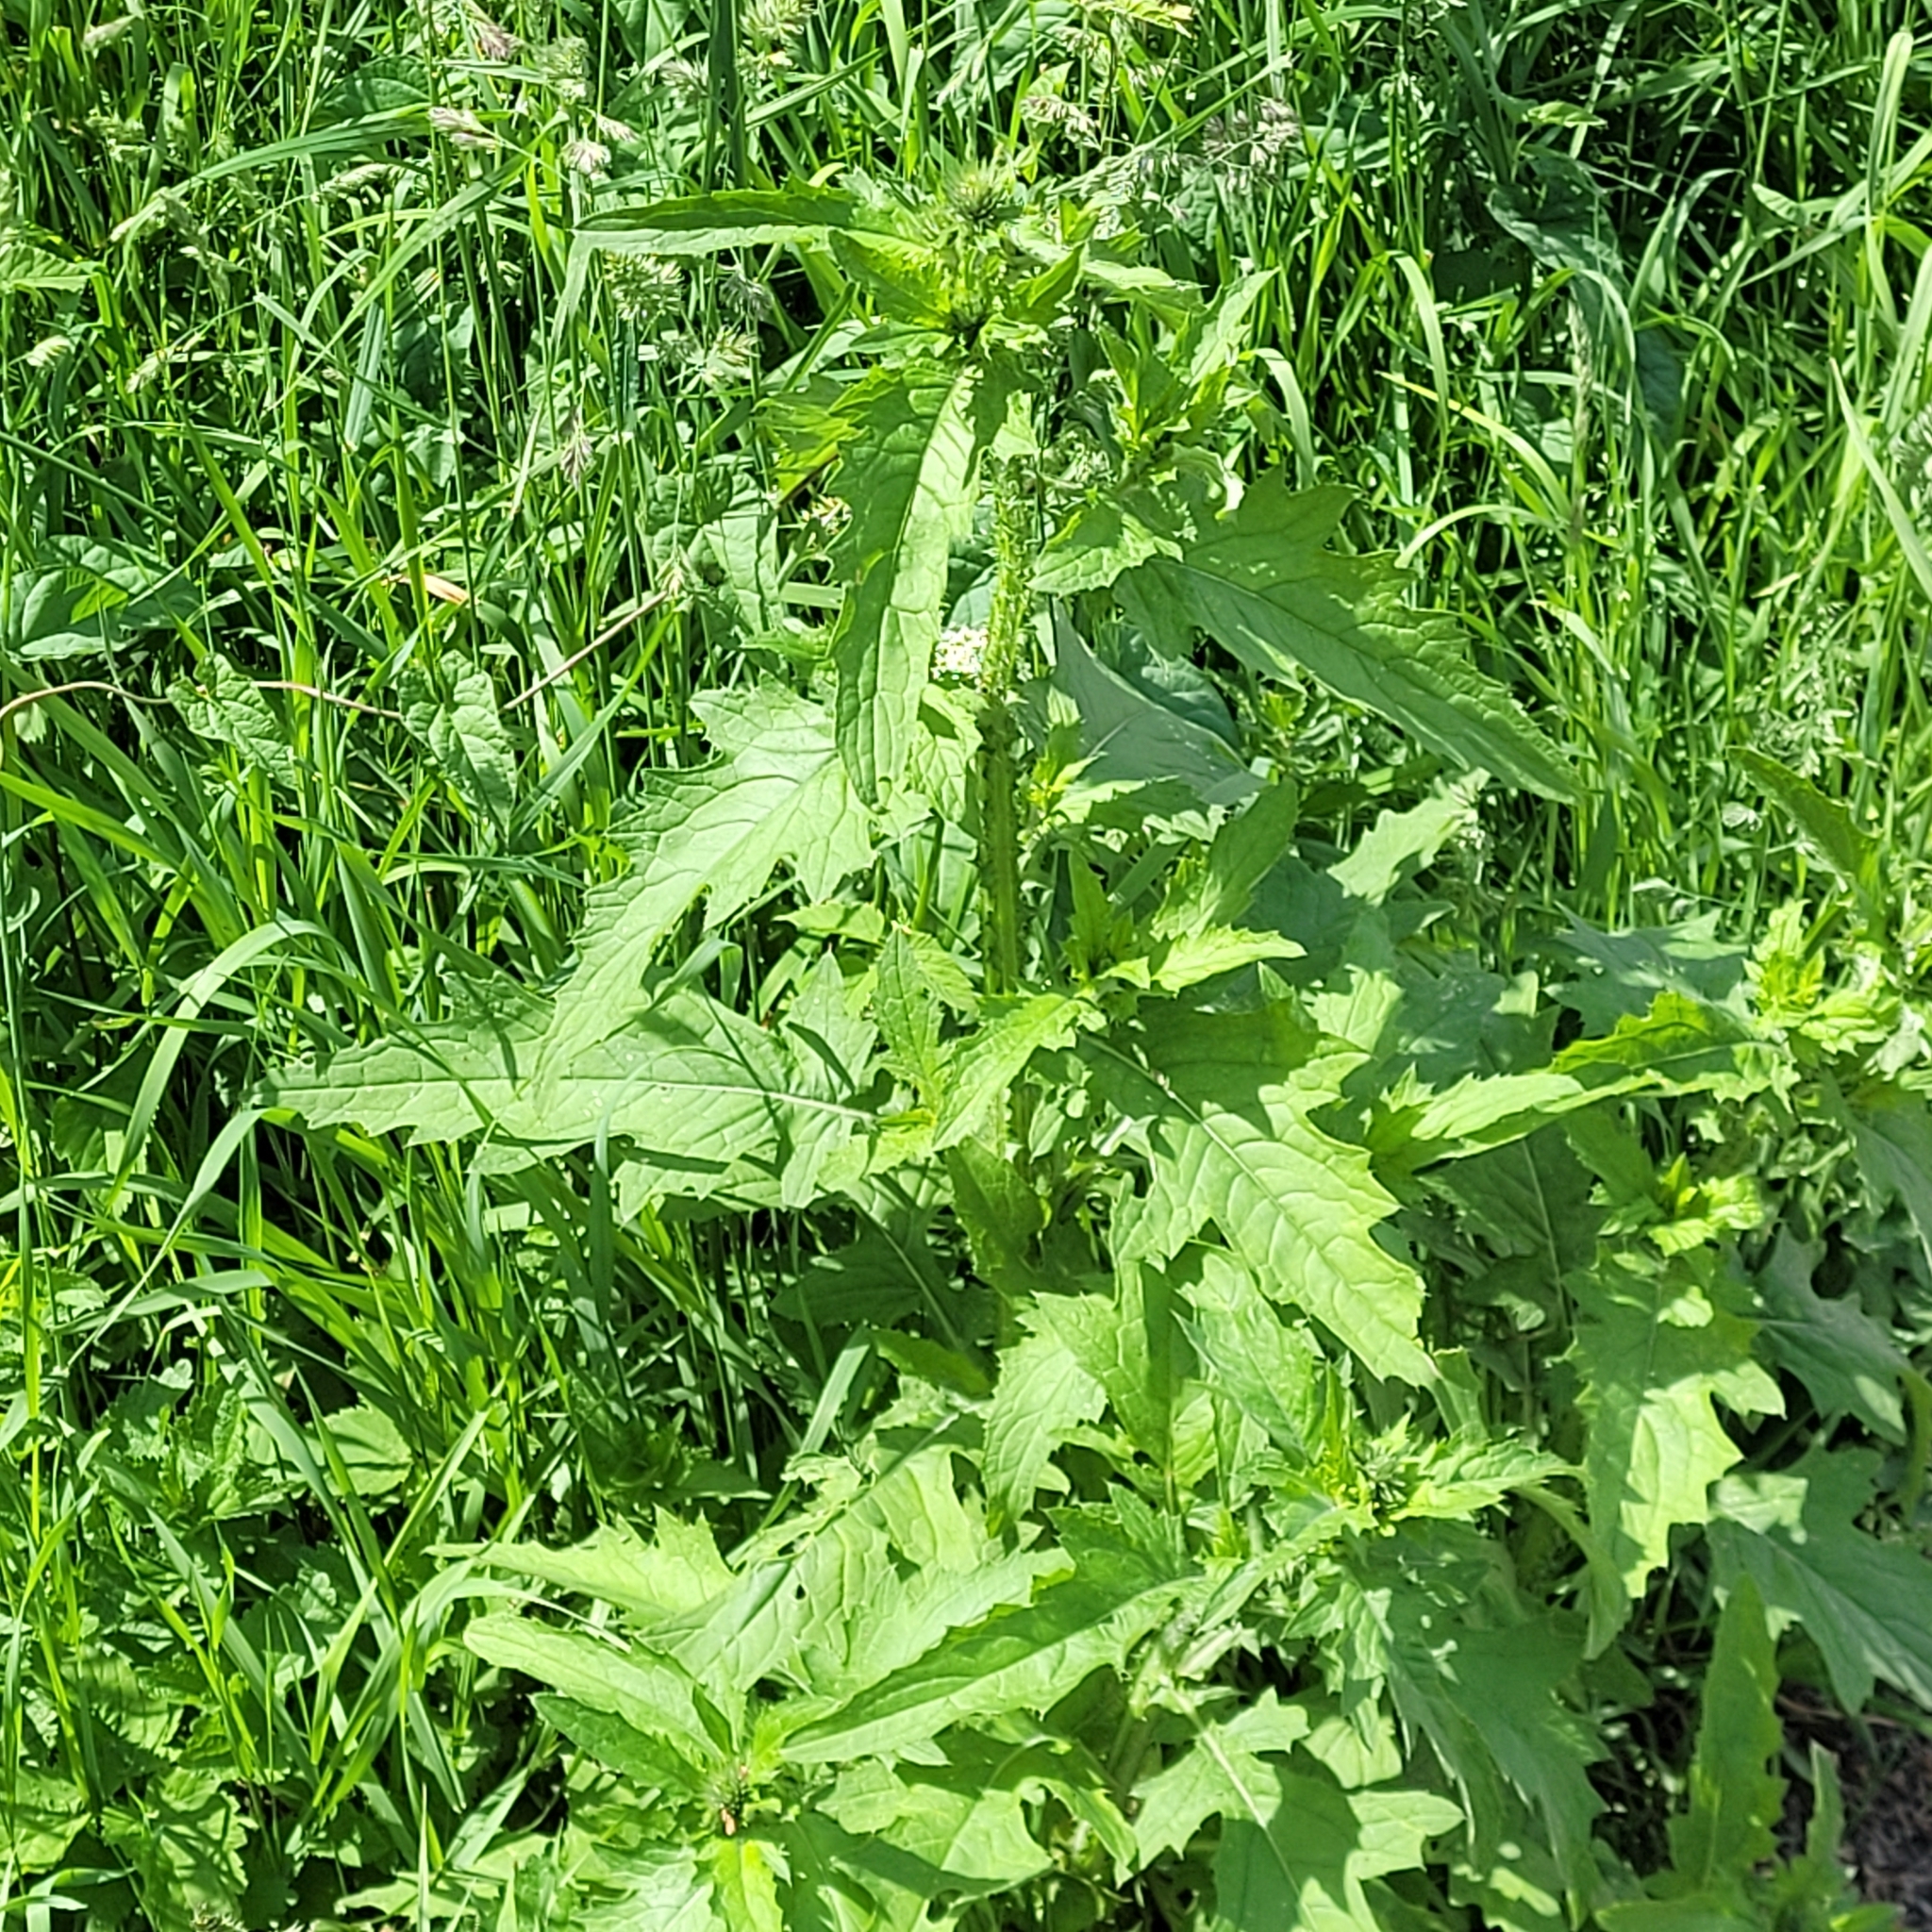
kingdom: Plantae
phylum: Tracheophyta
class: Magnoliopsida
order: Asterales
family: Asteraceae
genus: Carduus
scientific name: Carduus crispus
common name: Welted thistle
